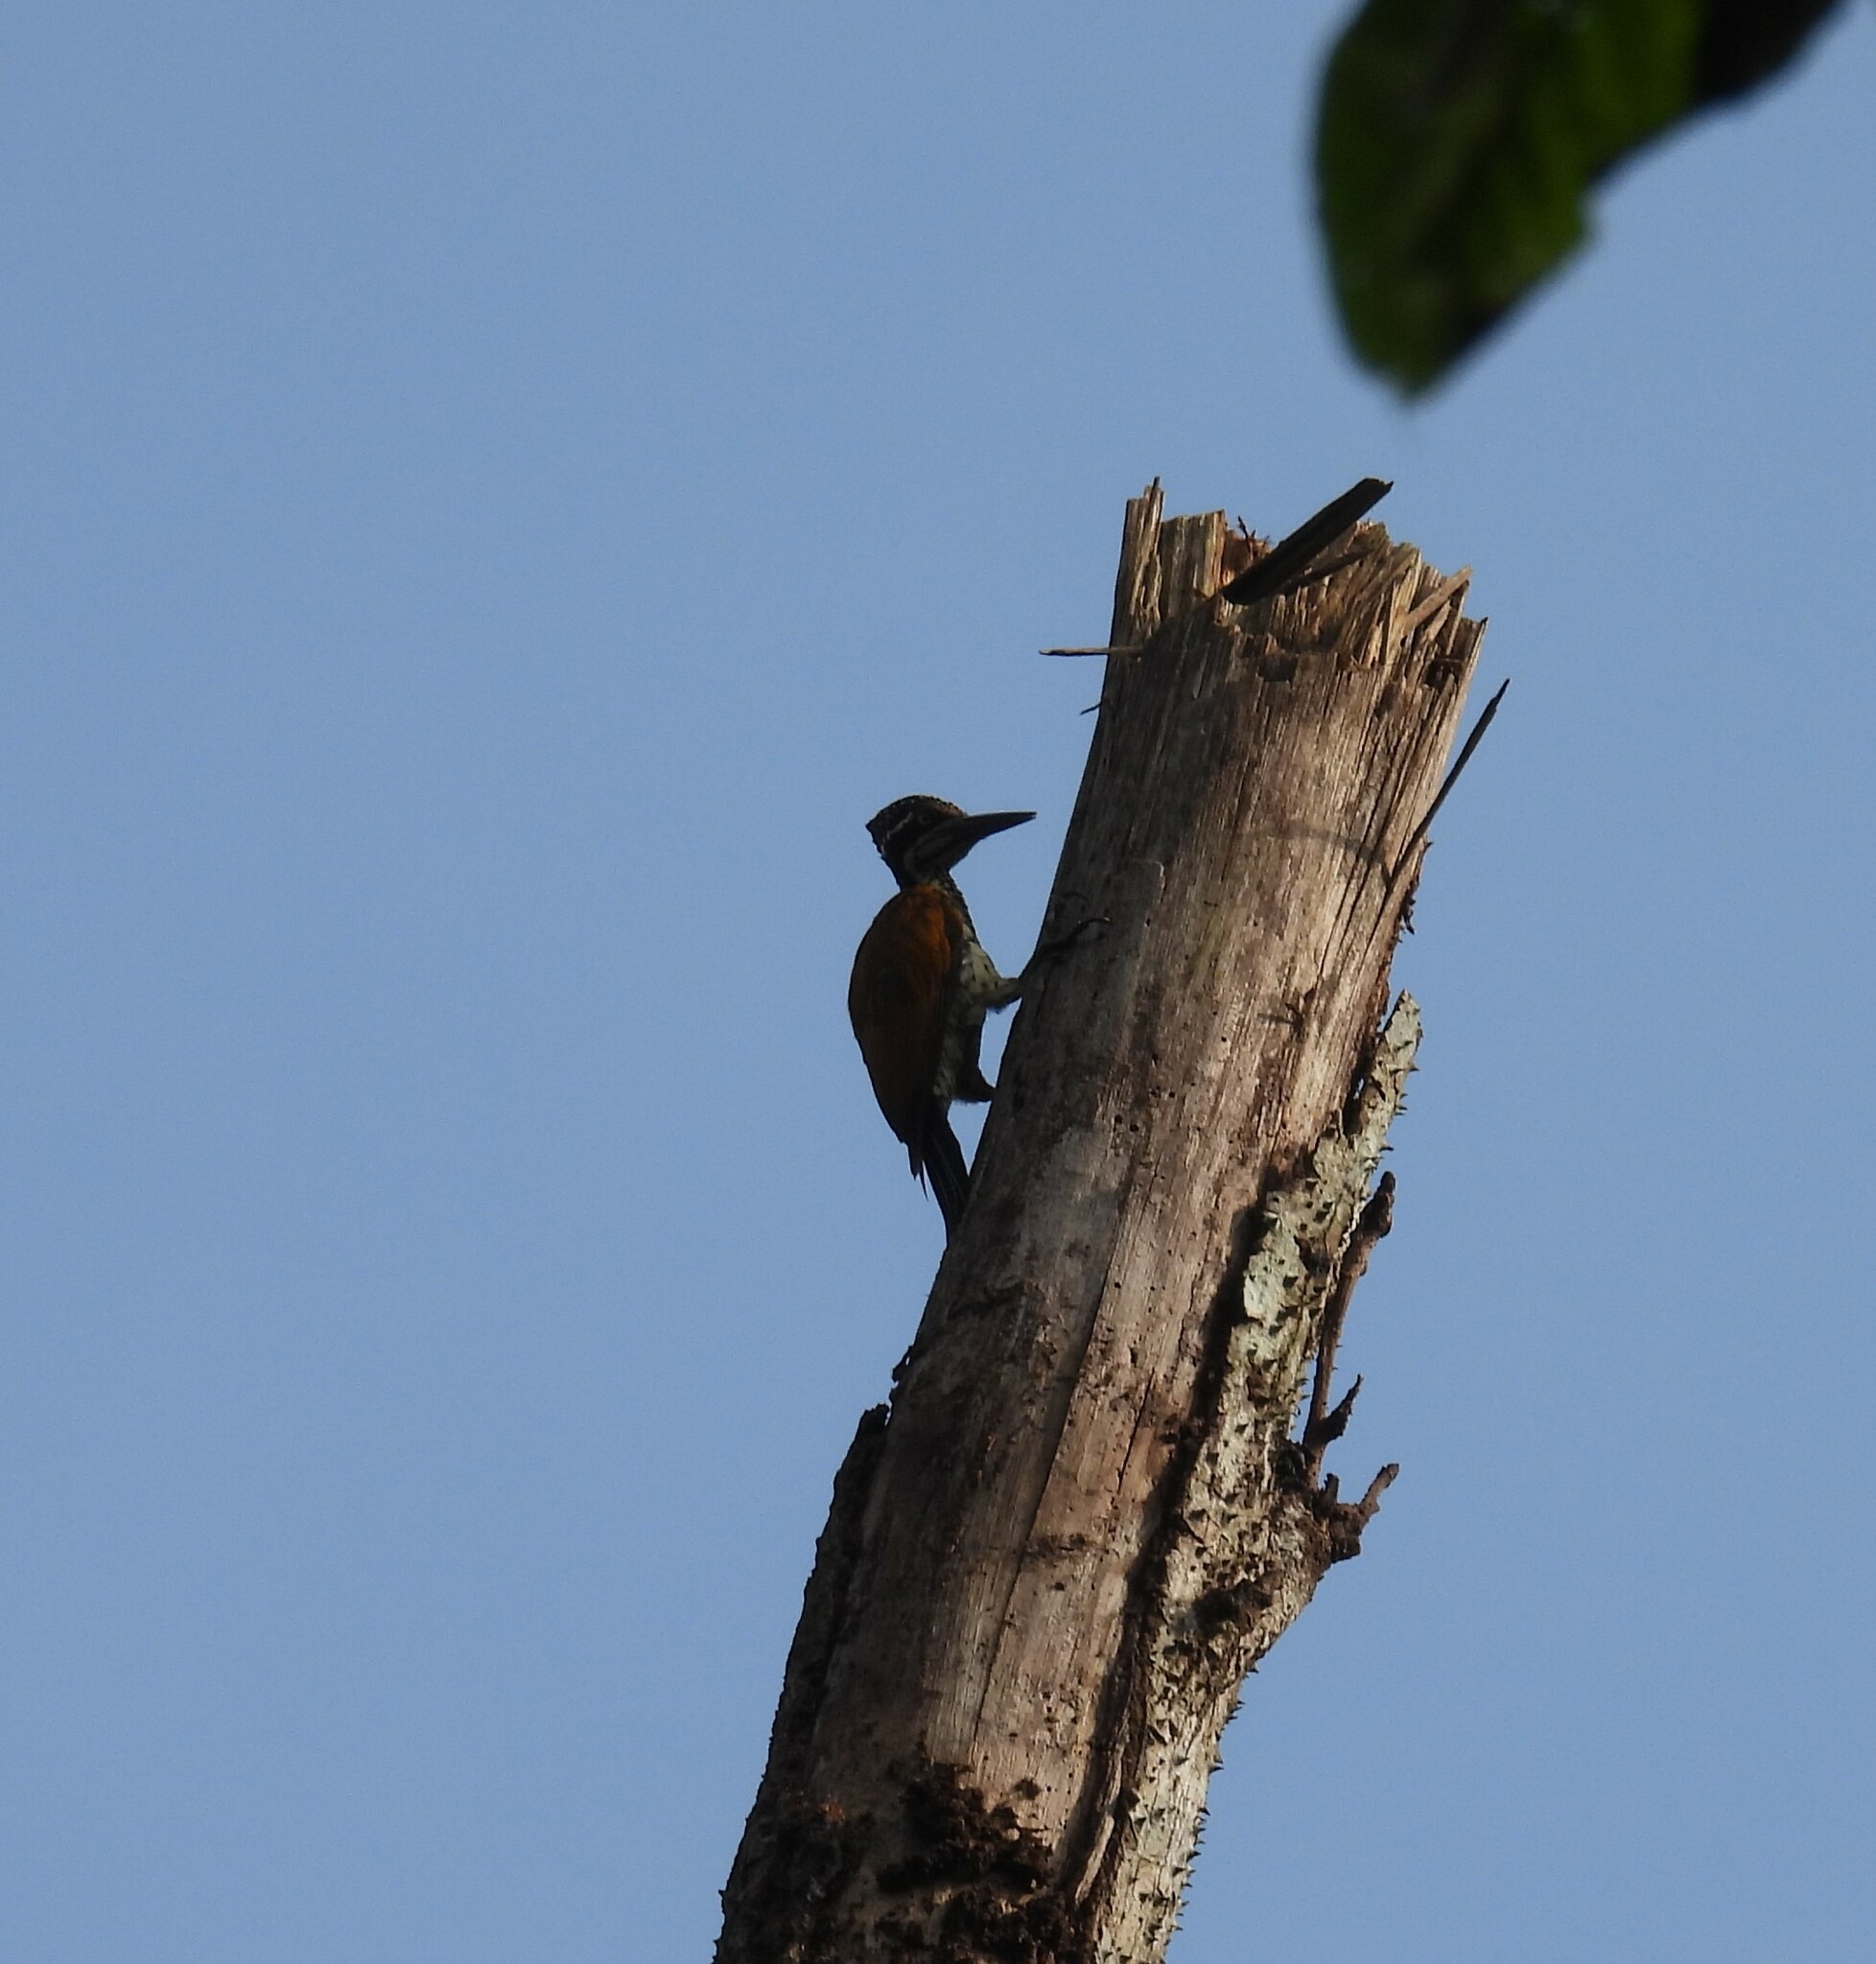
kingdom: Animalia
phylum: Chordata
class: Aves
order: Piciformes
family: Picidae
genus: Dinopium
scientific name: Dinopium benghalense
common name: Black-rumped flameback
